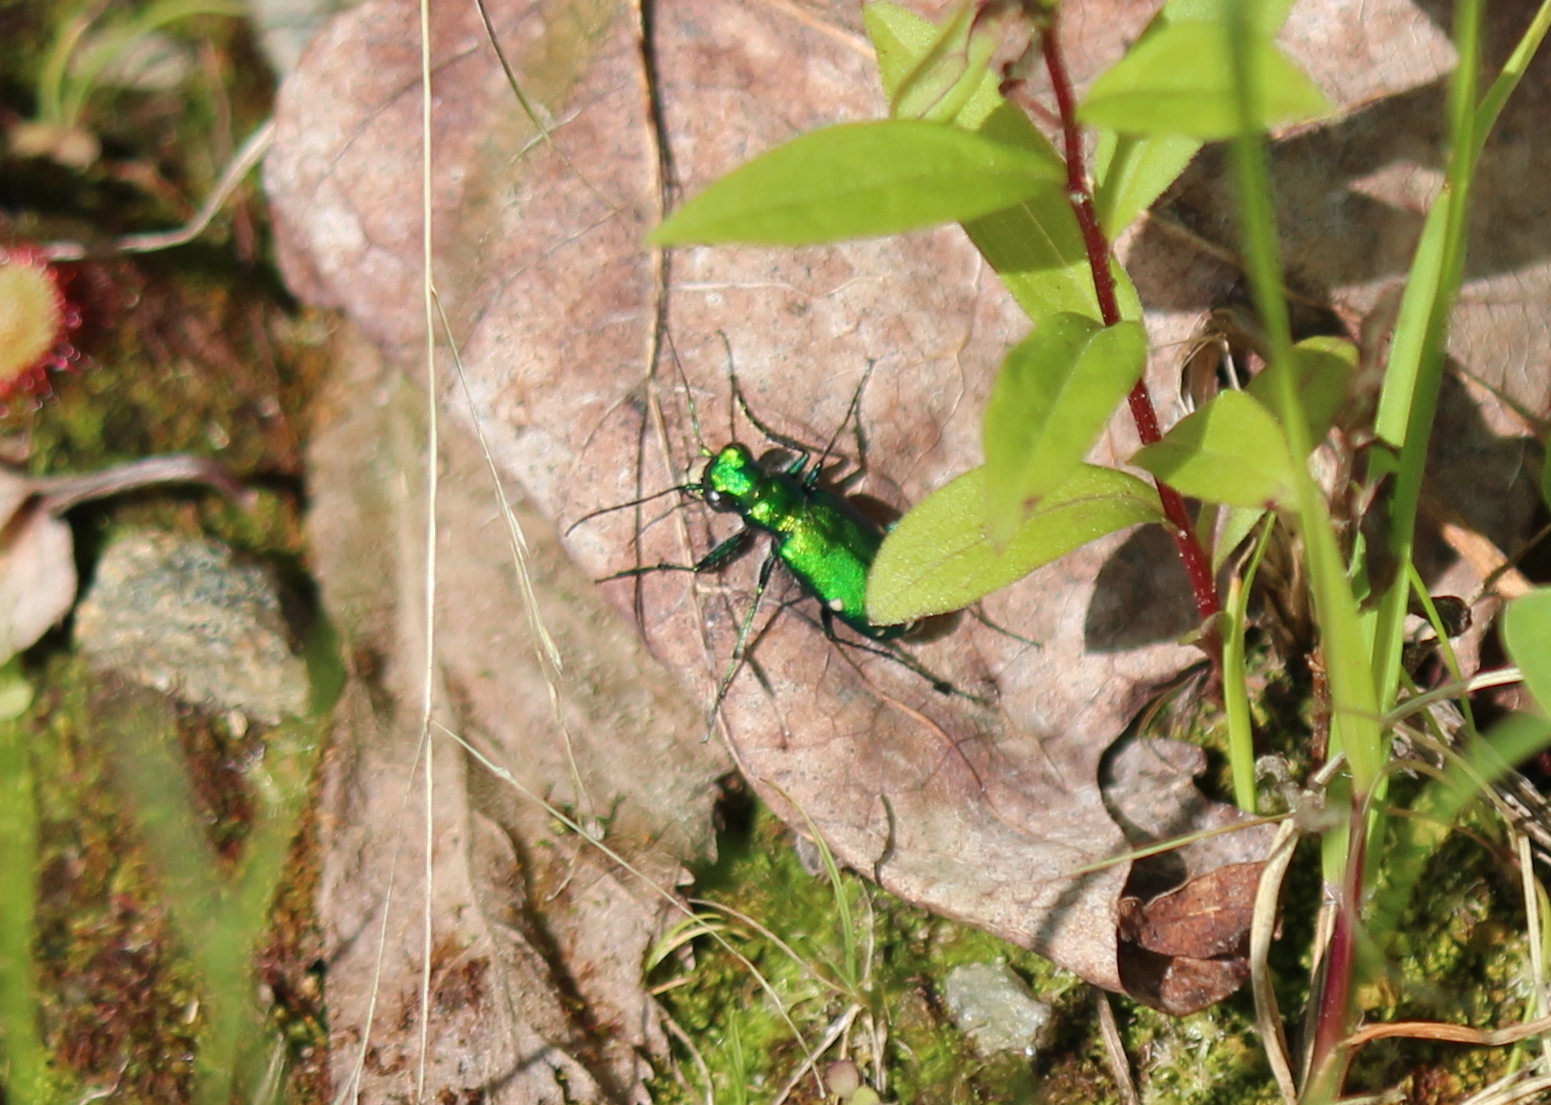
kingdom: Animalia
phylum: Arthropoda
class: Insecta
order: Coleoptera
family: Carabidae
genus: Cicindela
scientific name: Cicindela sexguttata
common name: Six-spotted tiger beetle
